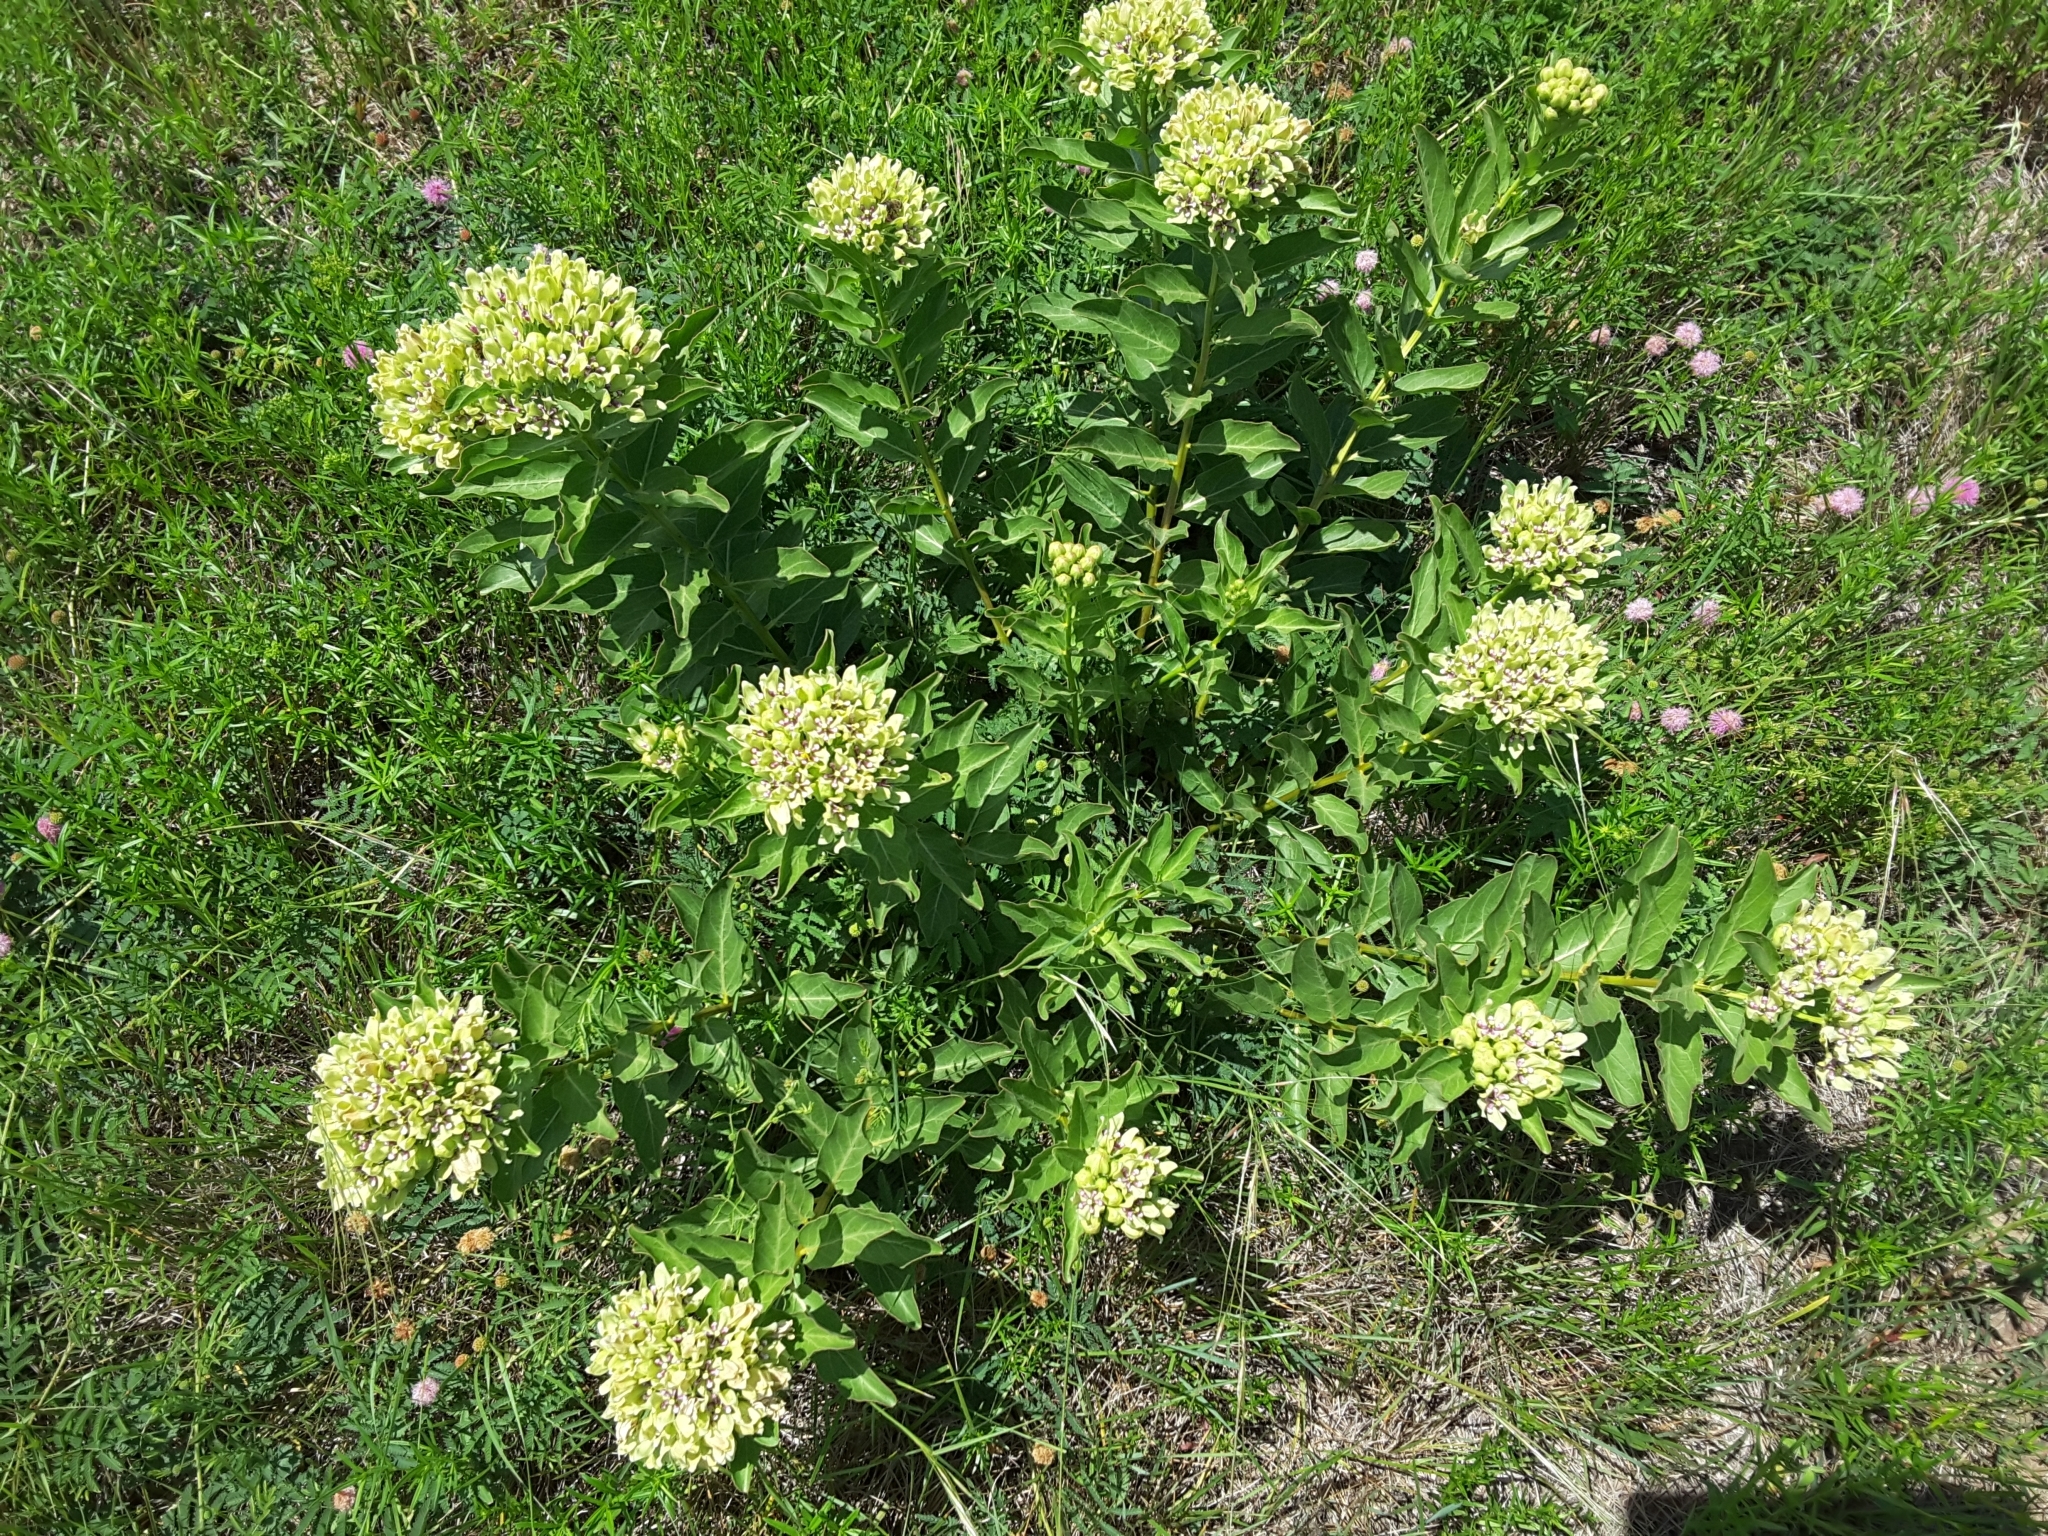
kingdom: Plantae
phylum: Tracheophyta
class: Magnoliopsida
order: Gentianales
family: Apocynaceae
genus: Asclepias
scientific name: Asclepias viridis
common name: Antelope-horns
